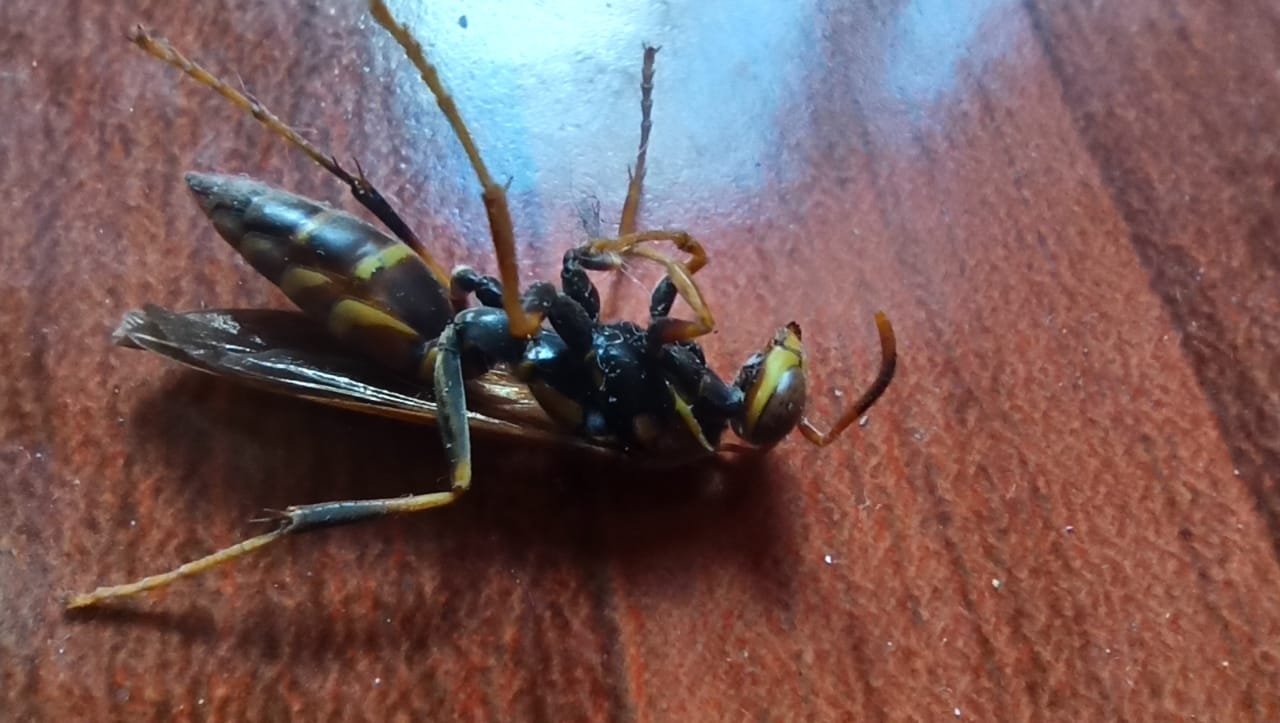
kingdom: Animalia
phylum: Arthropoda
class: Insecta
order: Hymenoptera
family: Eumenidae
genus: Polistes
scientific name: Polistes instabilis
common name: Unstable paper wasp
